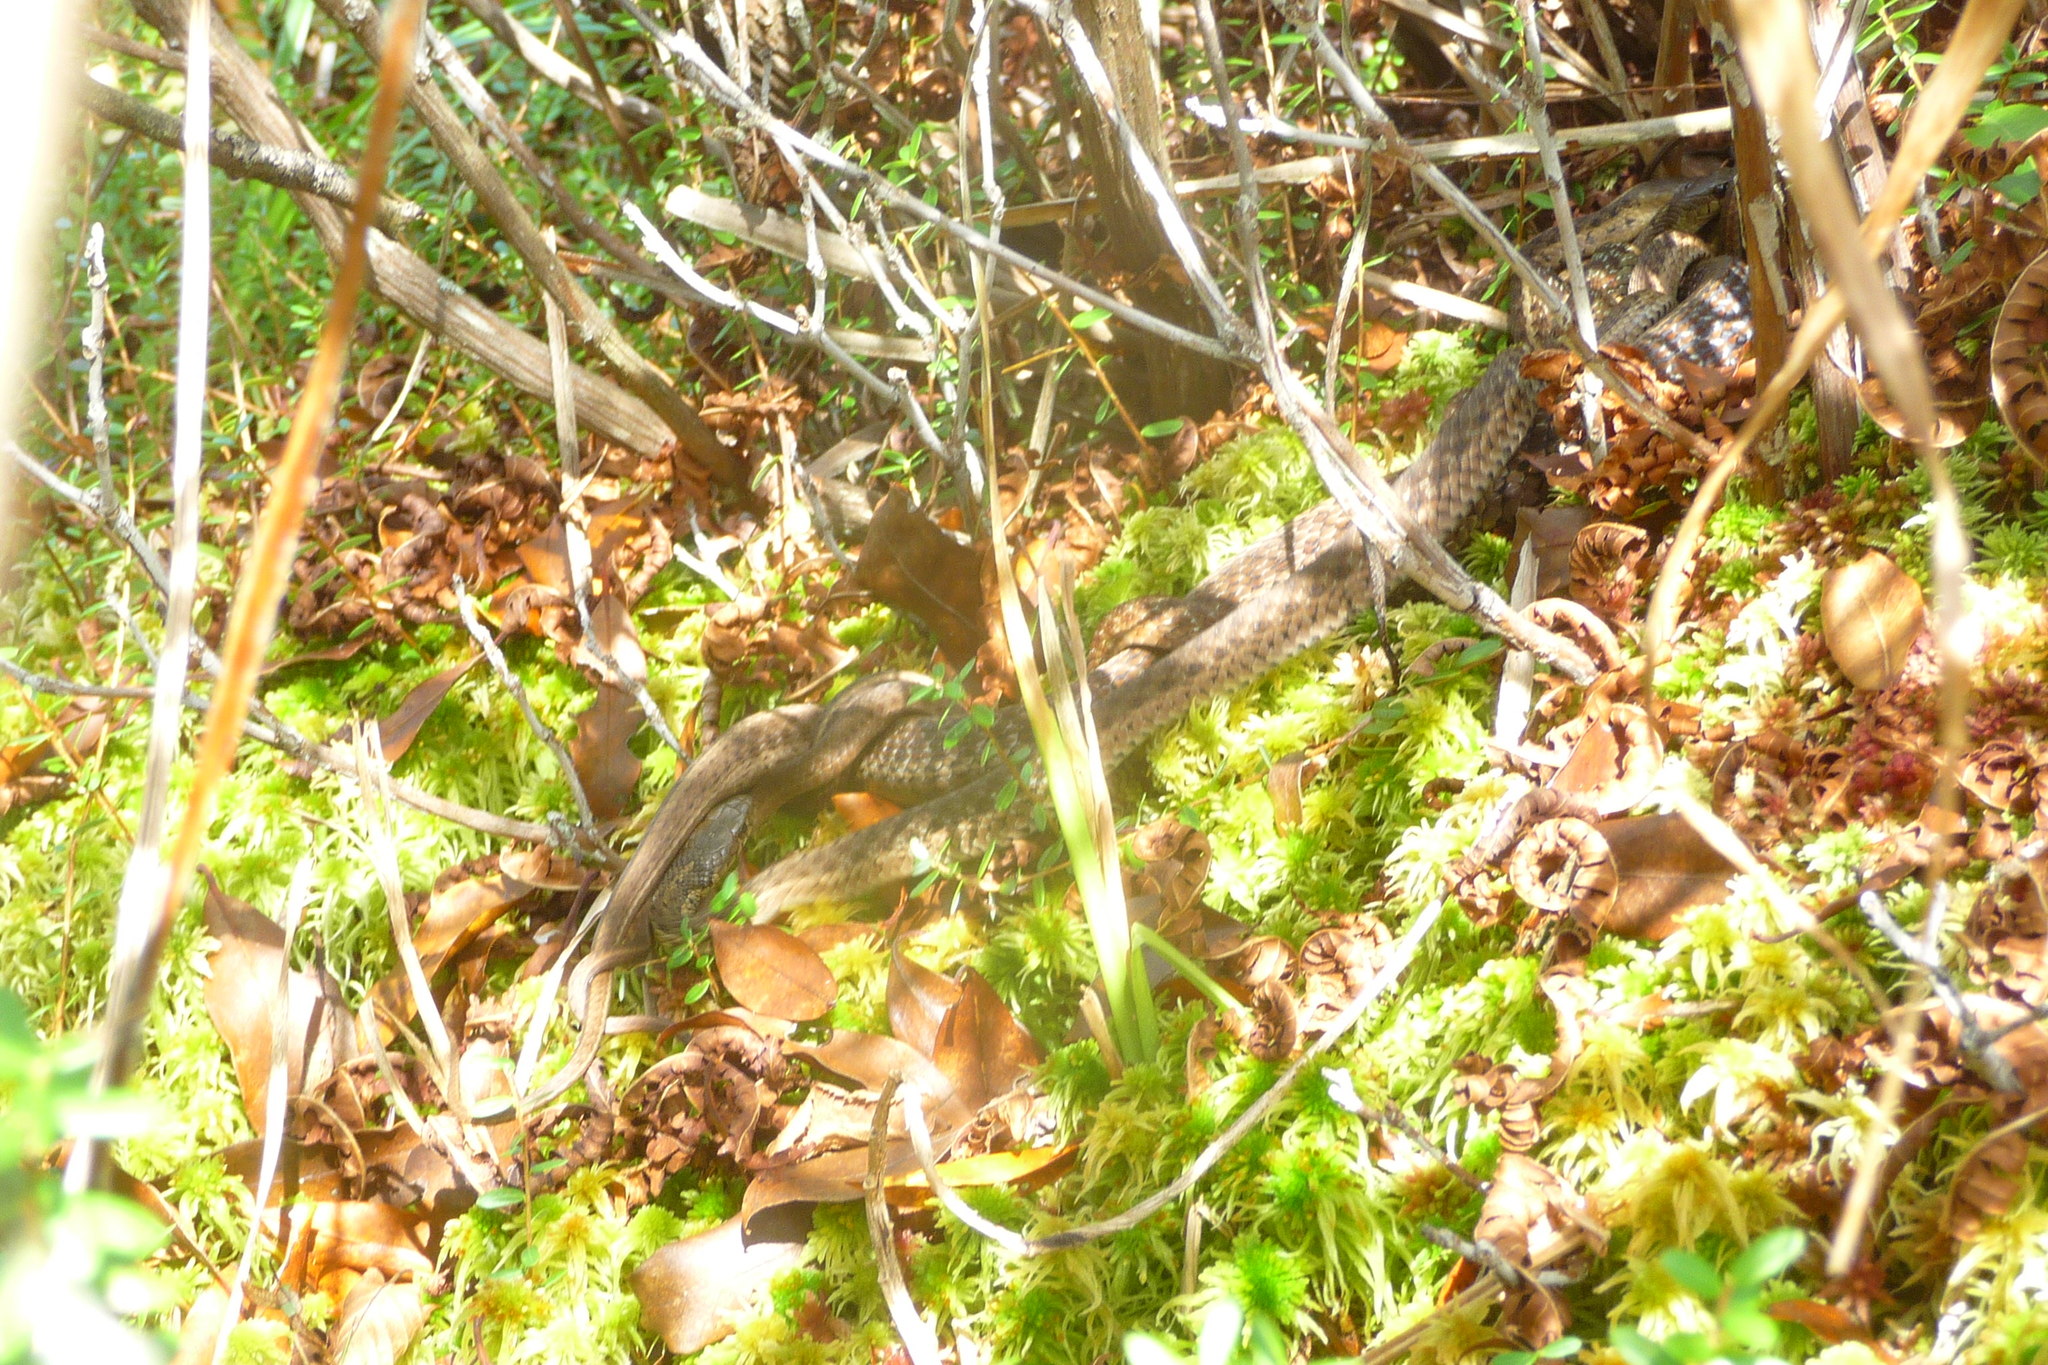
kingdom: Animalia
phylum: Chordata
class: Squamata
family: Colubridae
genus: Thamnophis
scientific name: Thamnophis sirtalis
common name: Common garter snake
